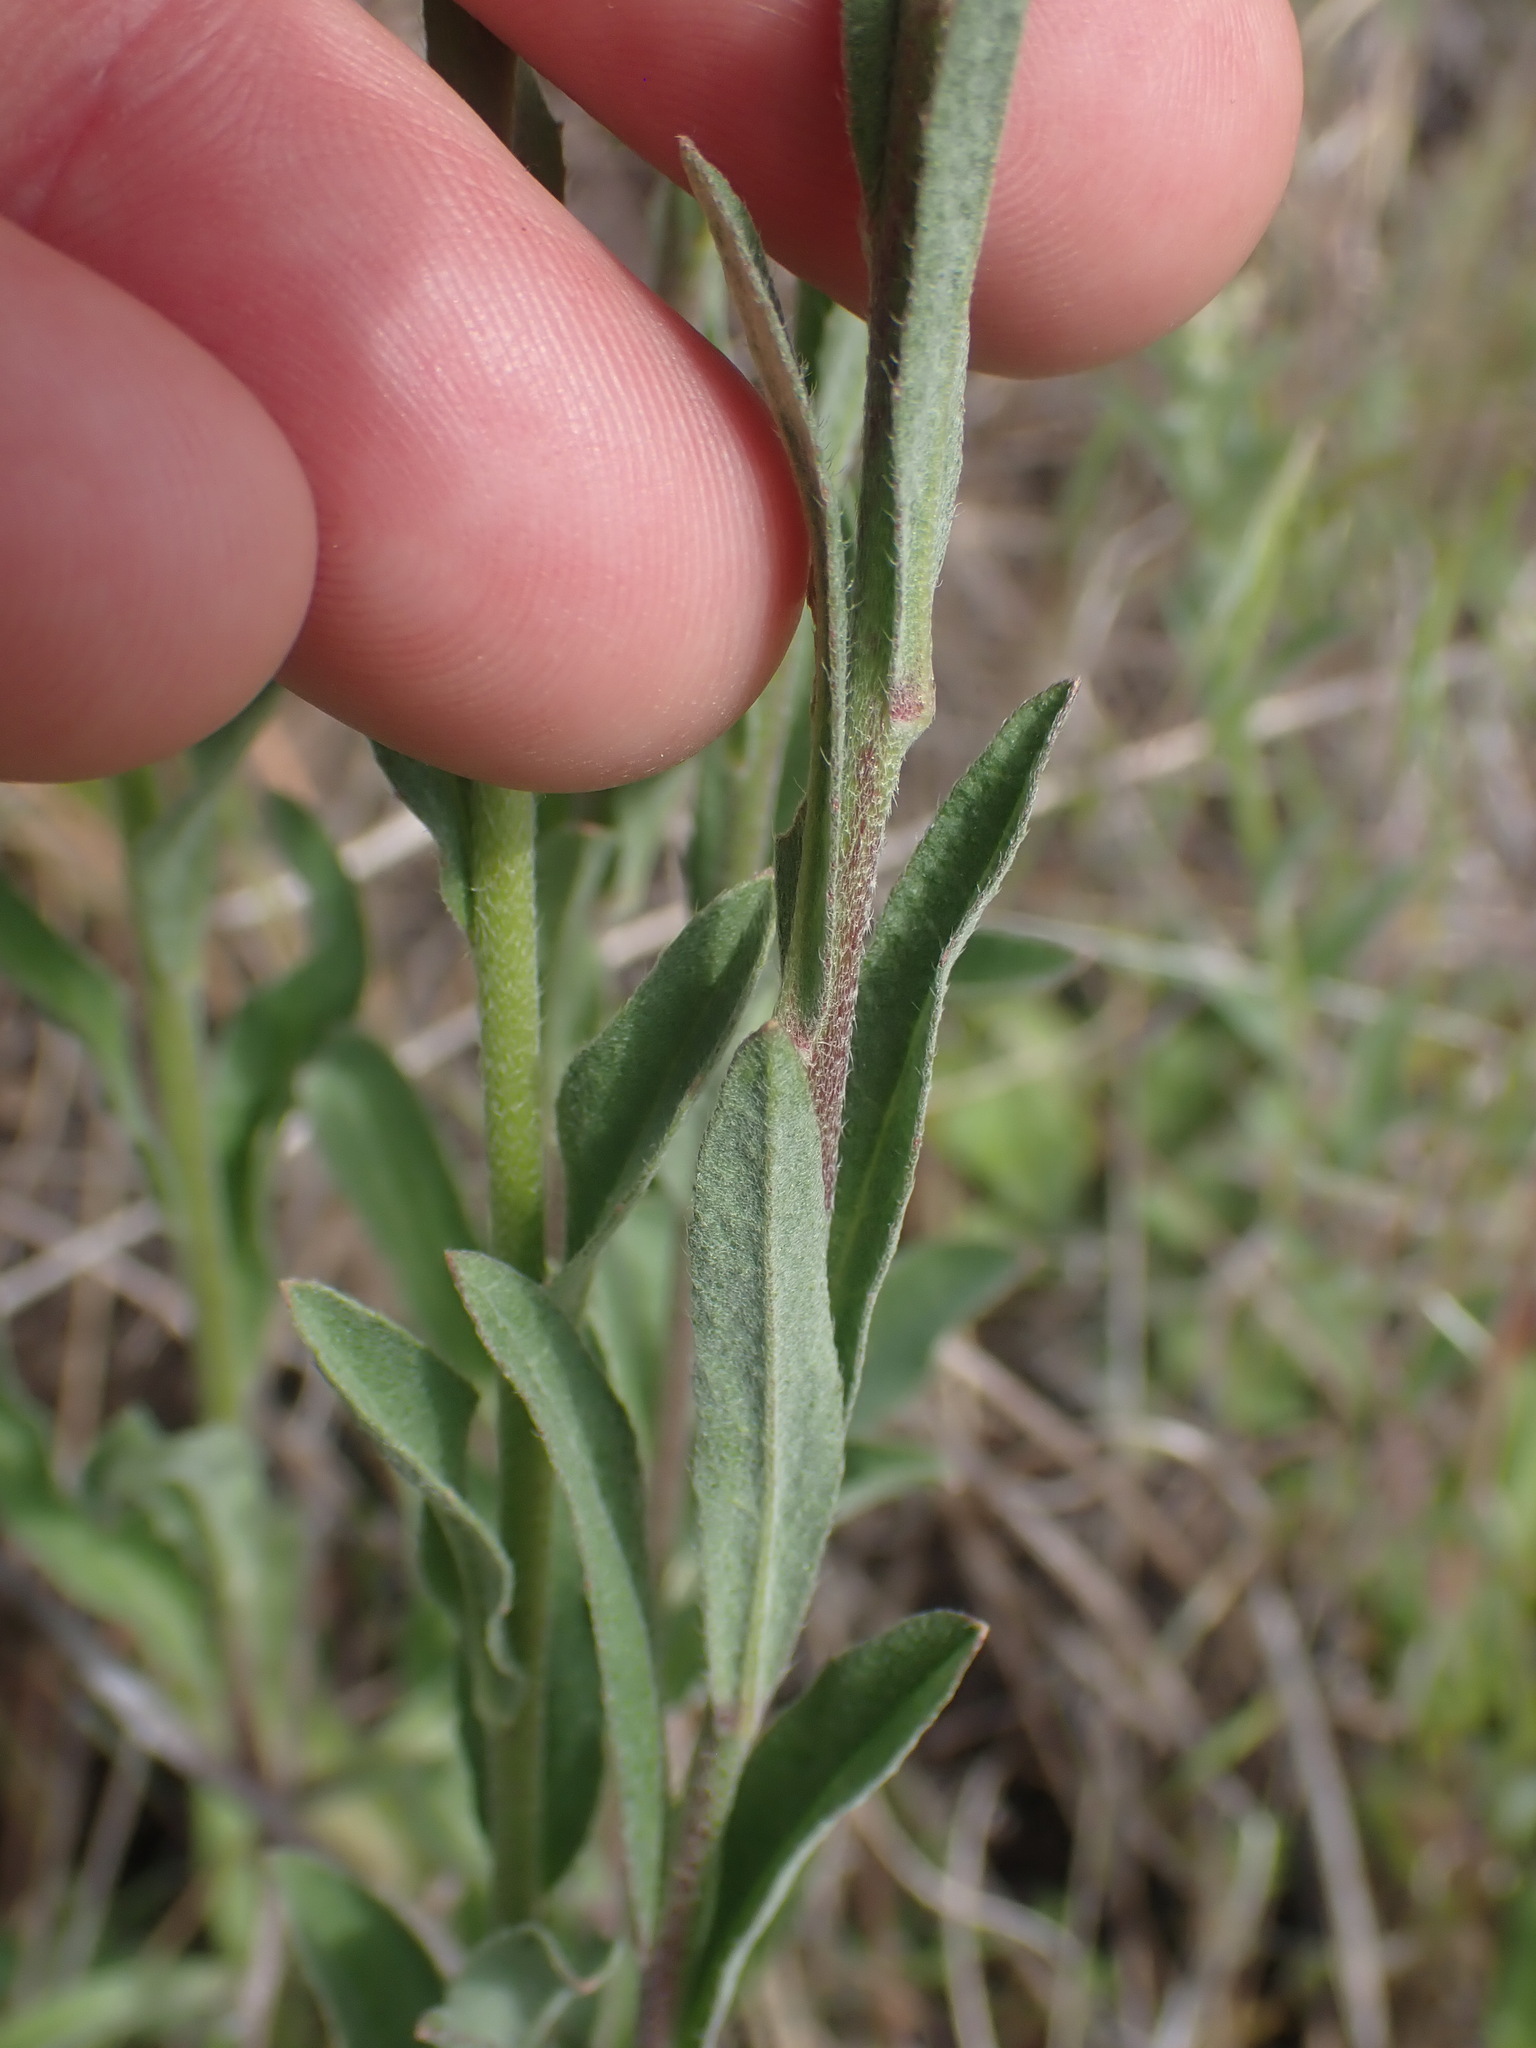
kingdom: Plantae
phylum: Tracheophyta
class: Magnoliopsida
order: Brassicales
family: Brassicaceae
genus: Berteroa
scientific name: Berteroa incana
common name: Hoary alison
